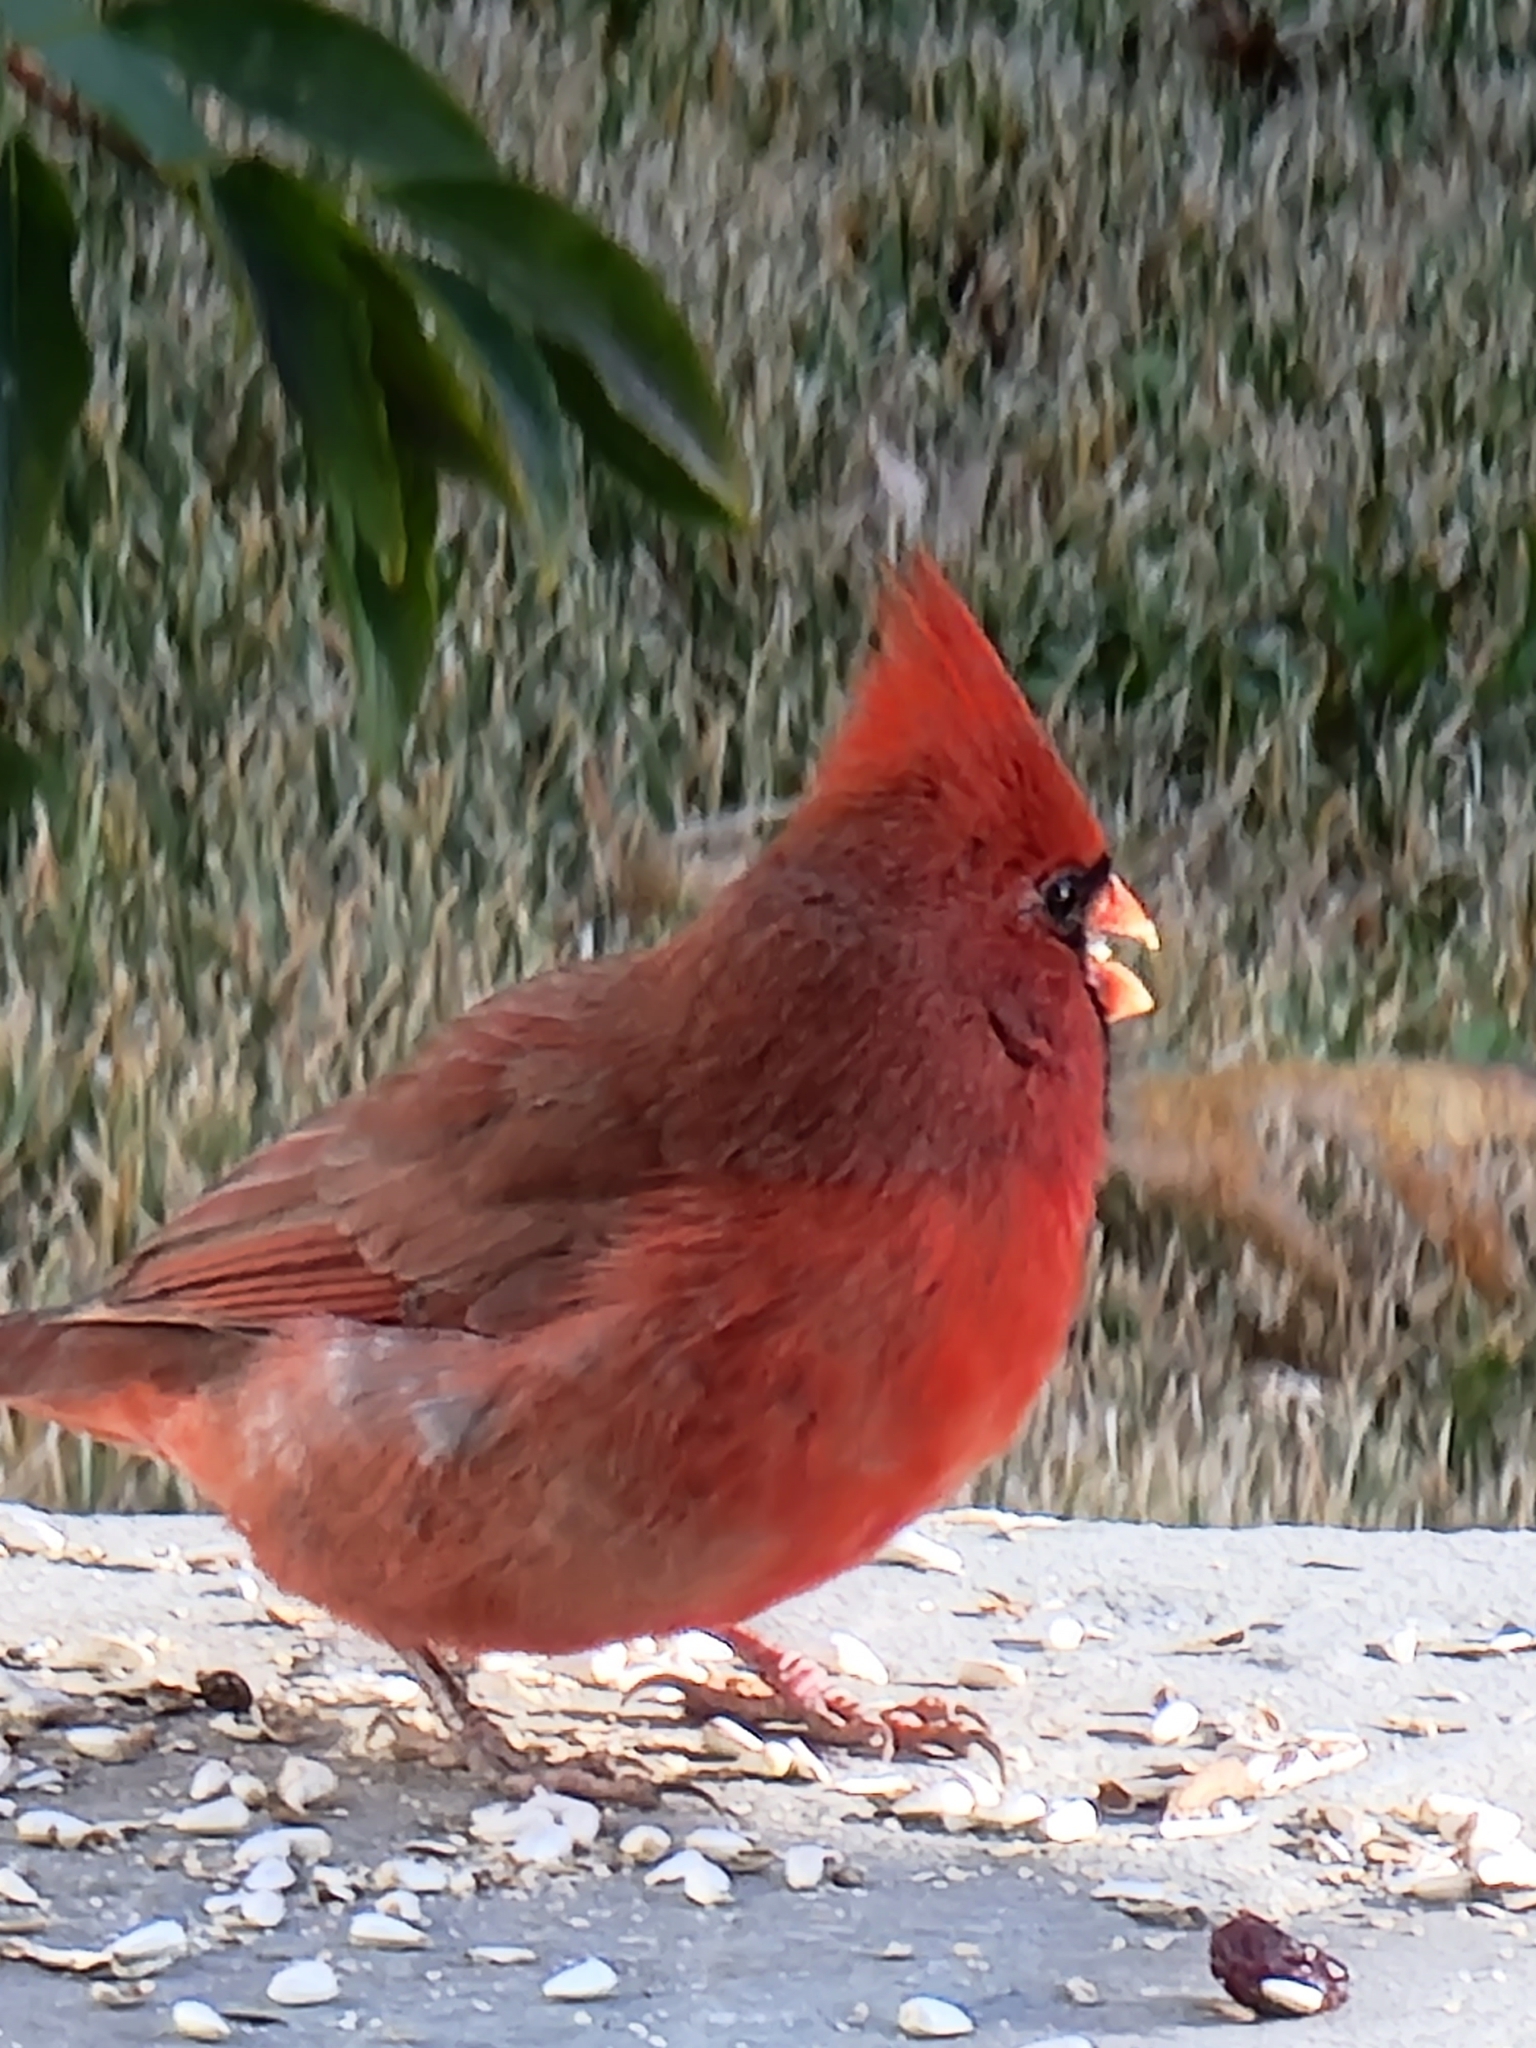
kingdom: Animalia
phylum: Chordata
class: Aves
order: Passeriformes
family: Cardinalidae
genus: Cardinalis
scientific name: Cardinalis cardinalis
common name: Northern cardinal
